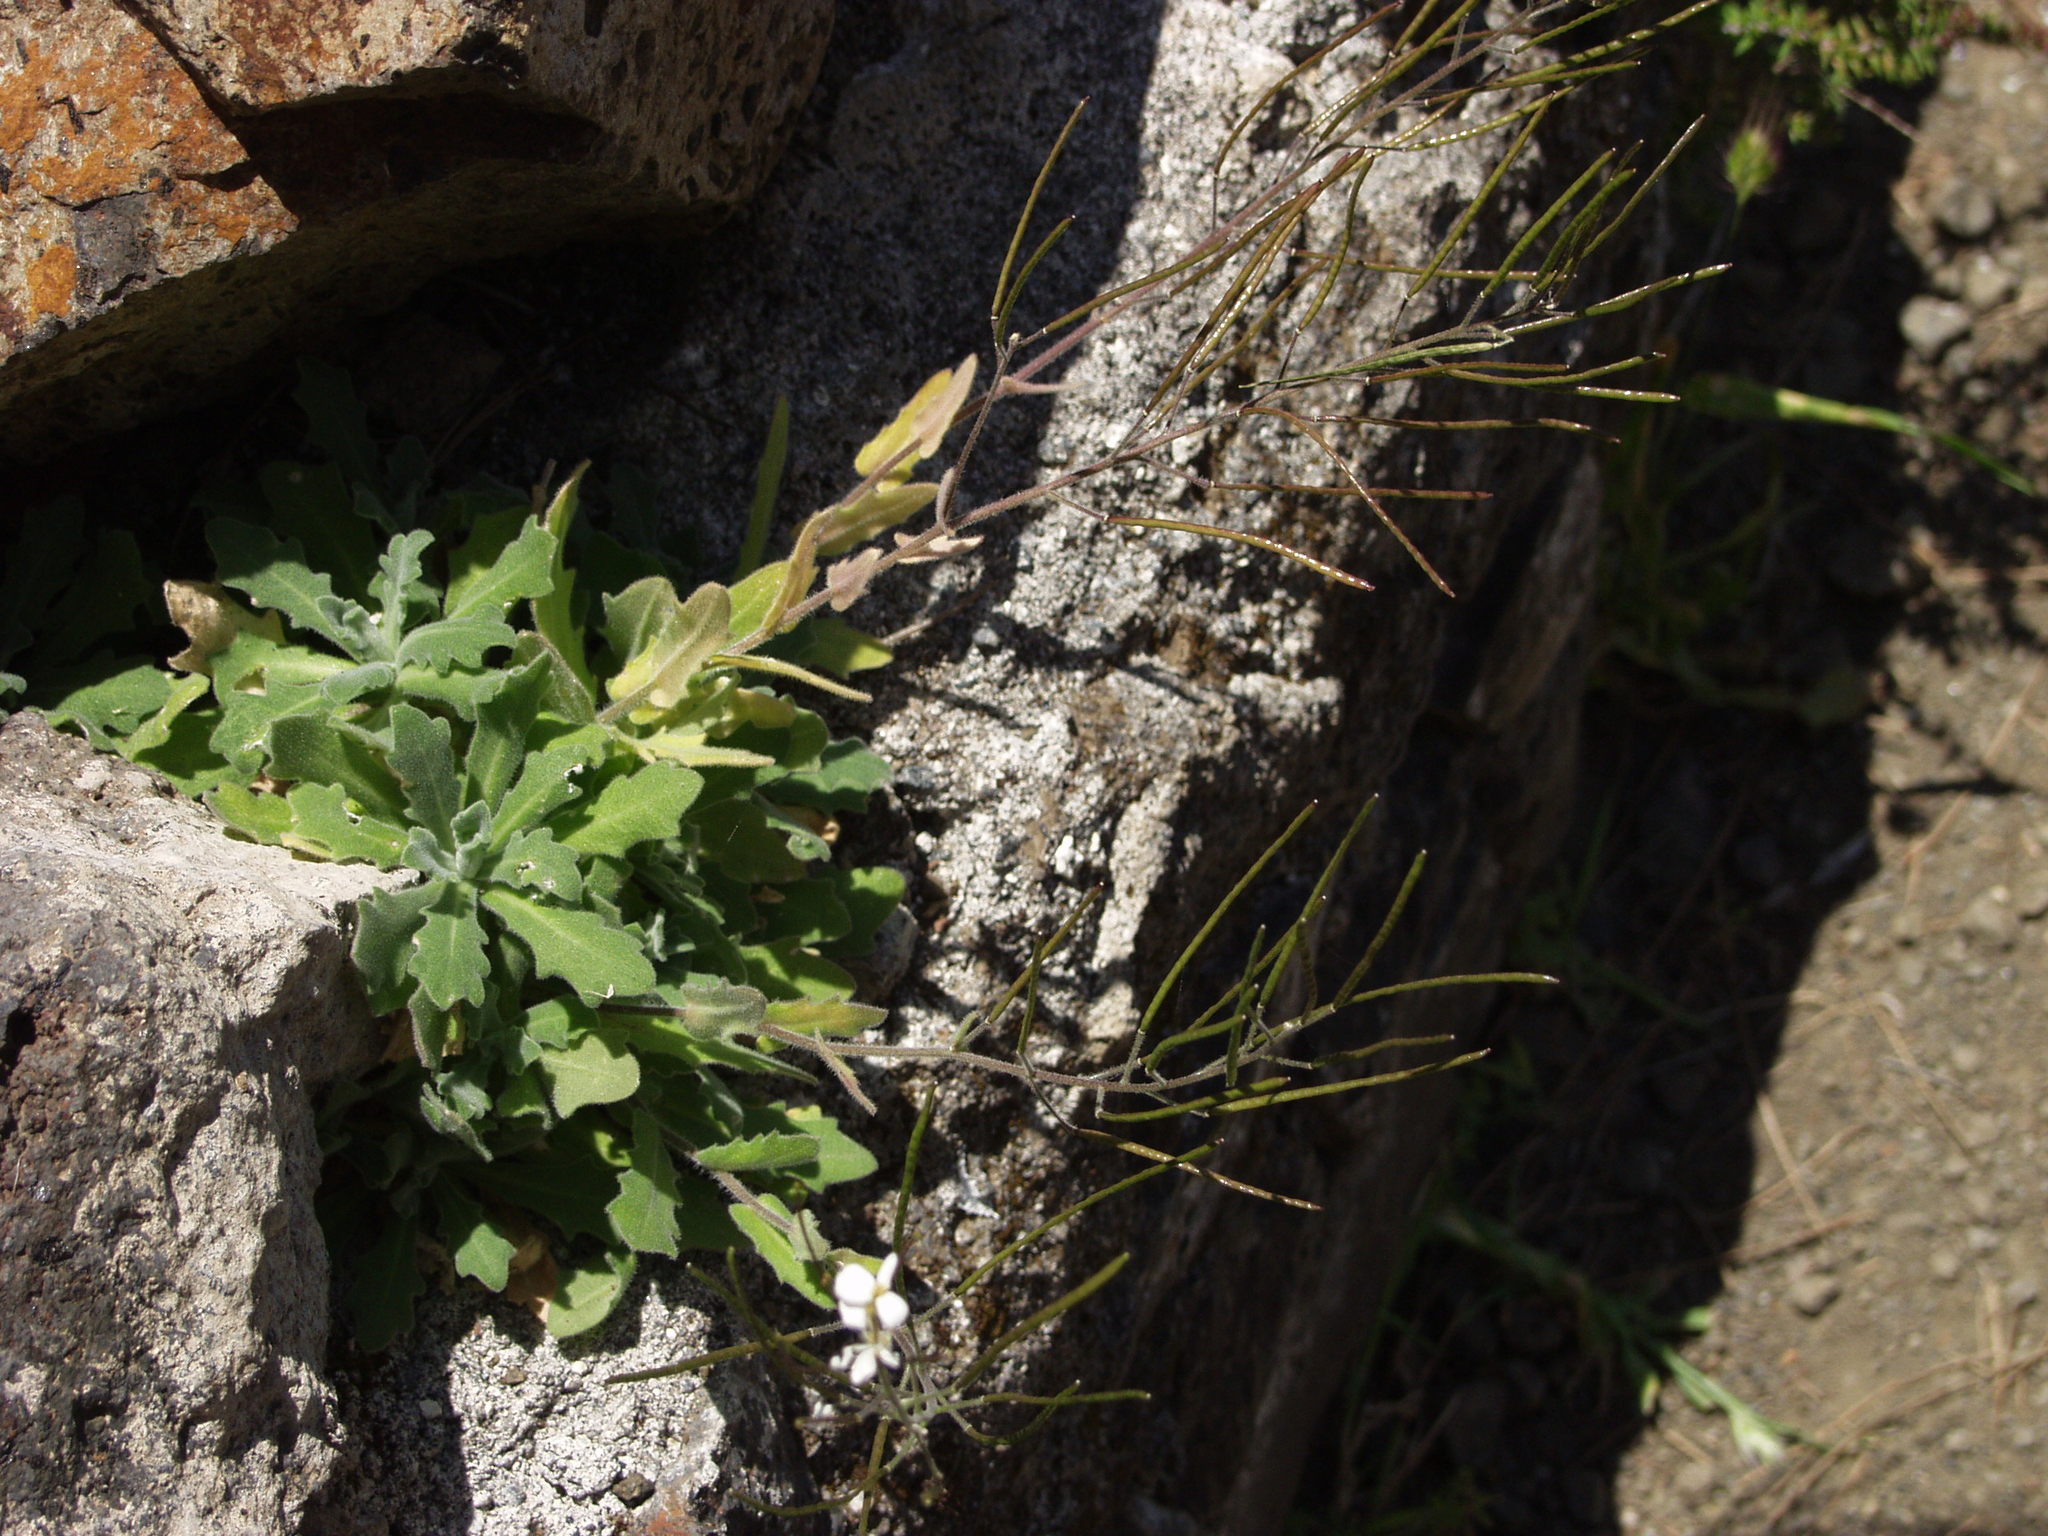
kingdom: Plantae
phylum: Tracheophyta
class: Magnoliopsida
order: Brassicales
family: Brassicaceae
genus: Arabis
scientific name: Arabis caucasica
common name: Gray rockcress
